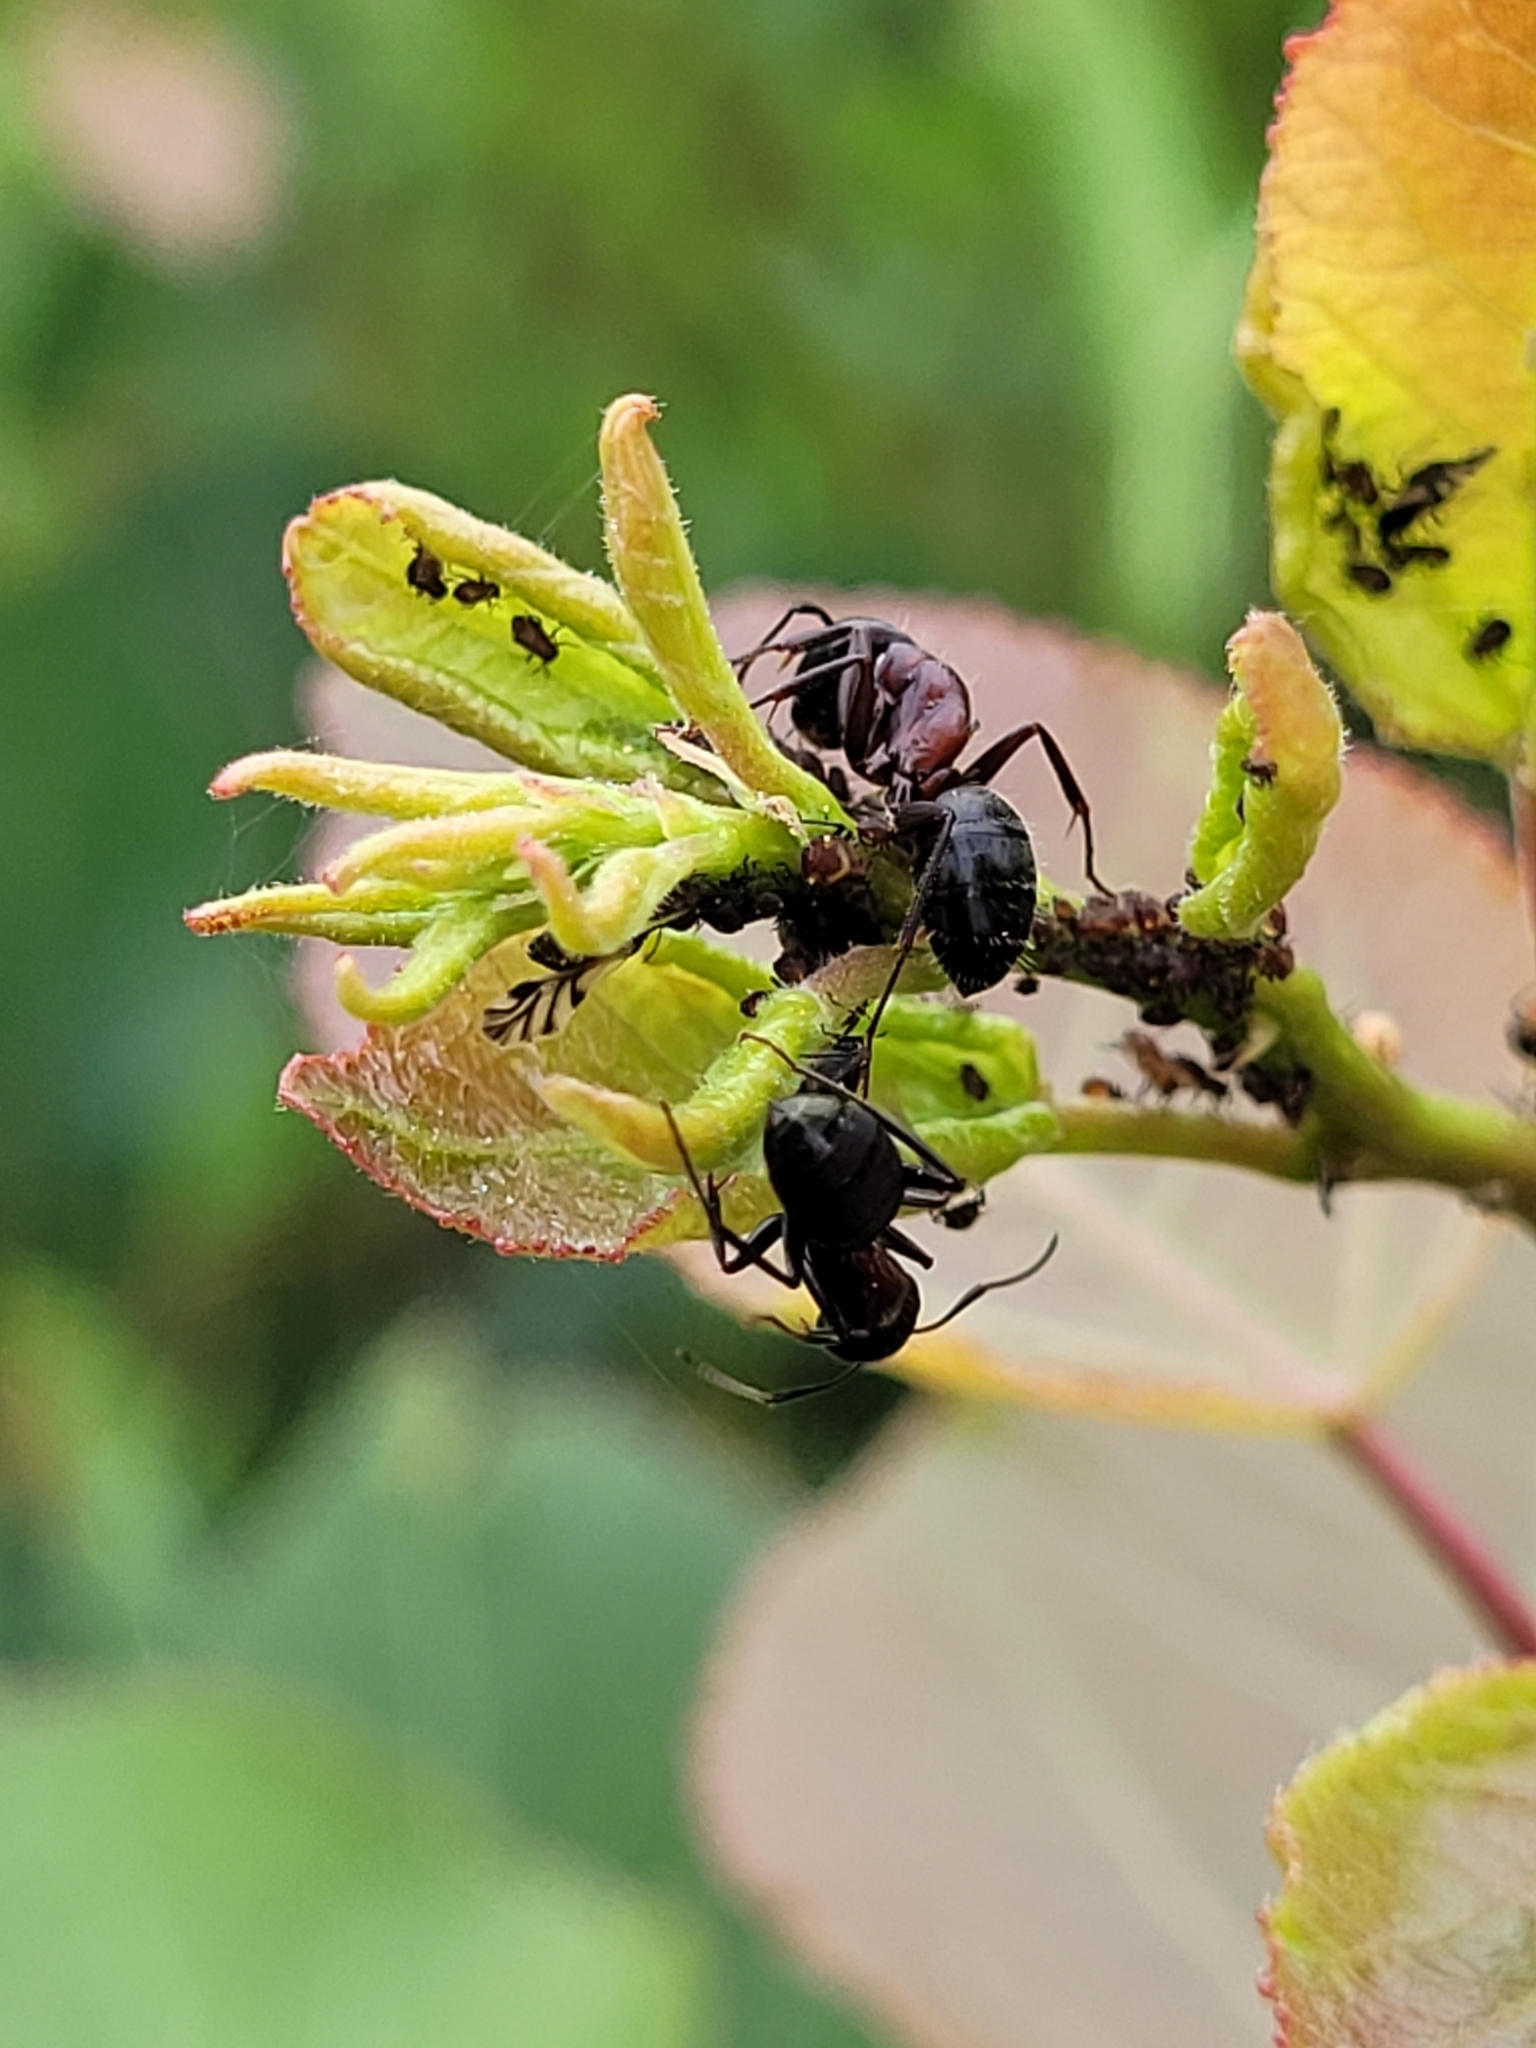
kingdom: Animalia
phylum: Arthropoda
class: Insecta
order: Hymenoptera
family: Formicidae
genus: Camponotus
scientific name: Camponotus novaeboracensis
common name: New york carpenter ant
